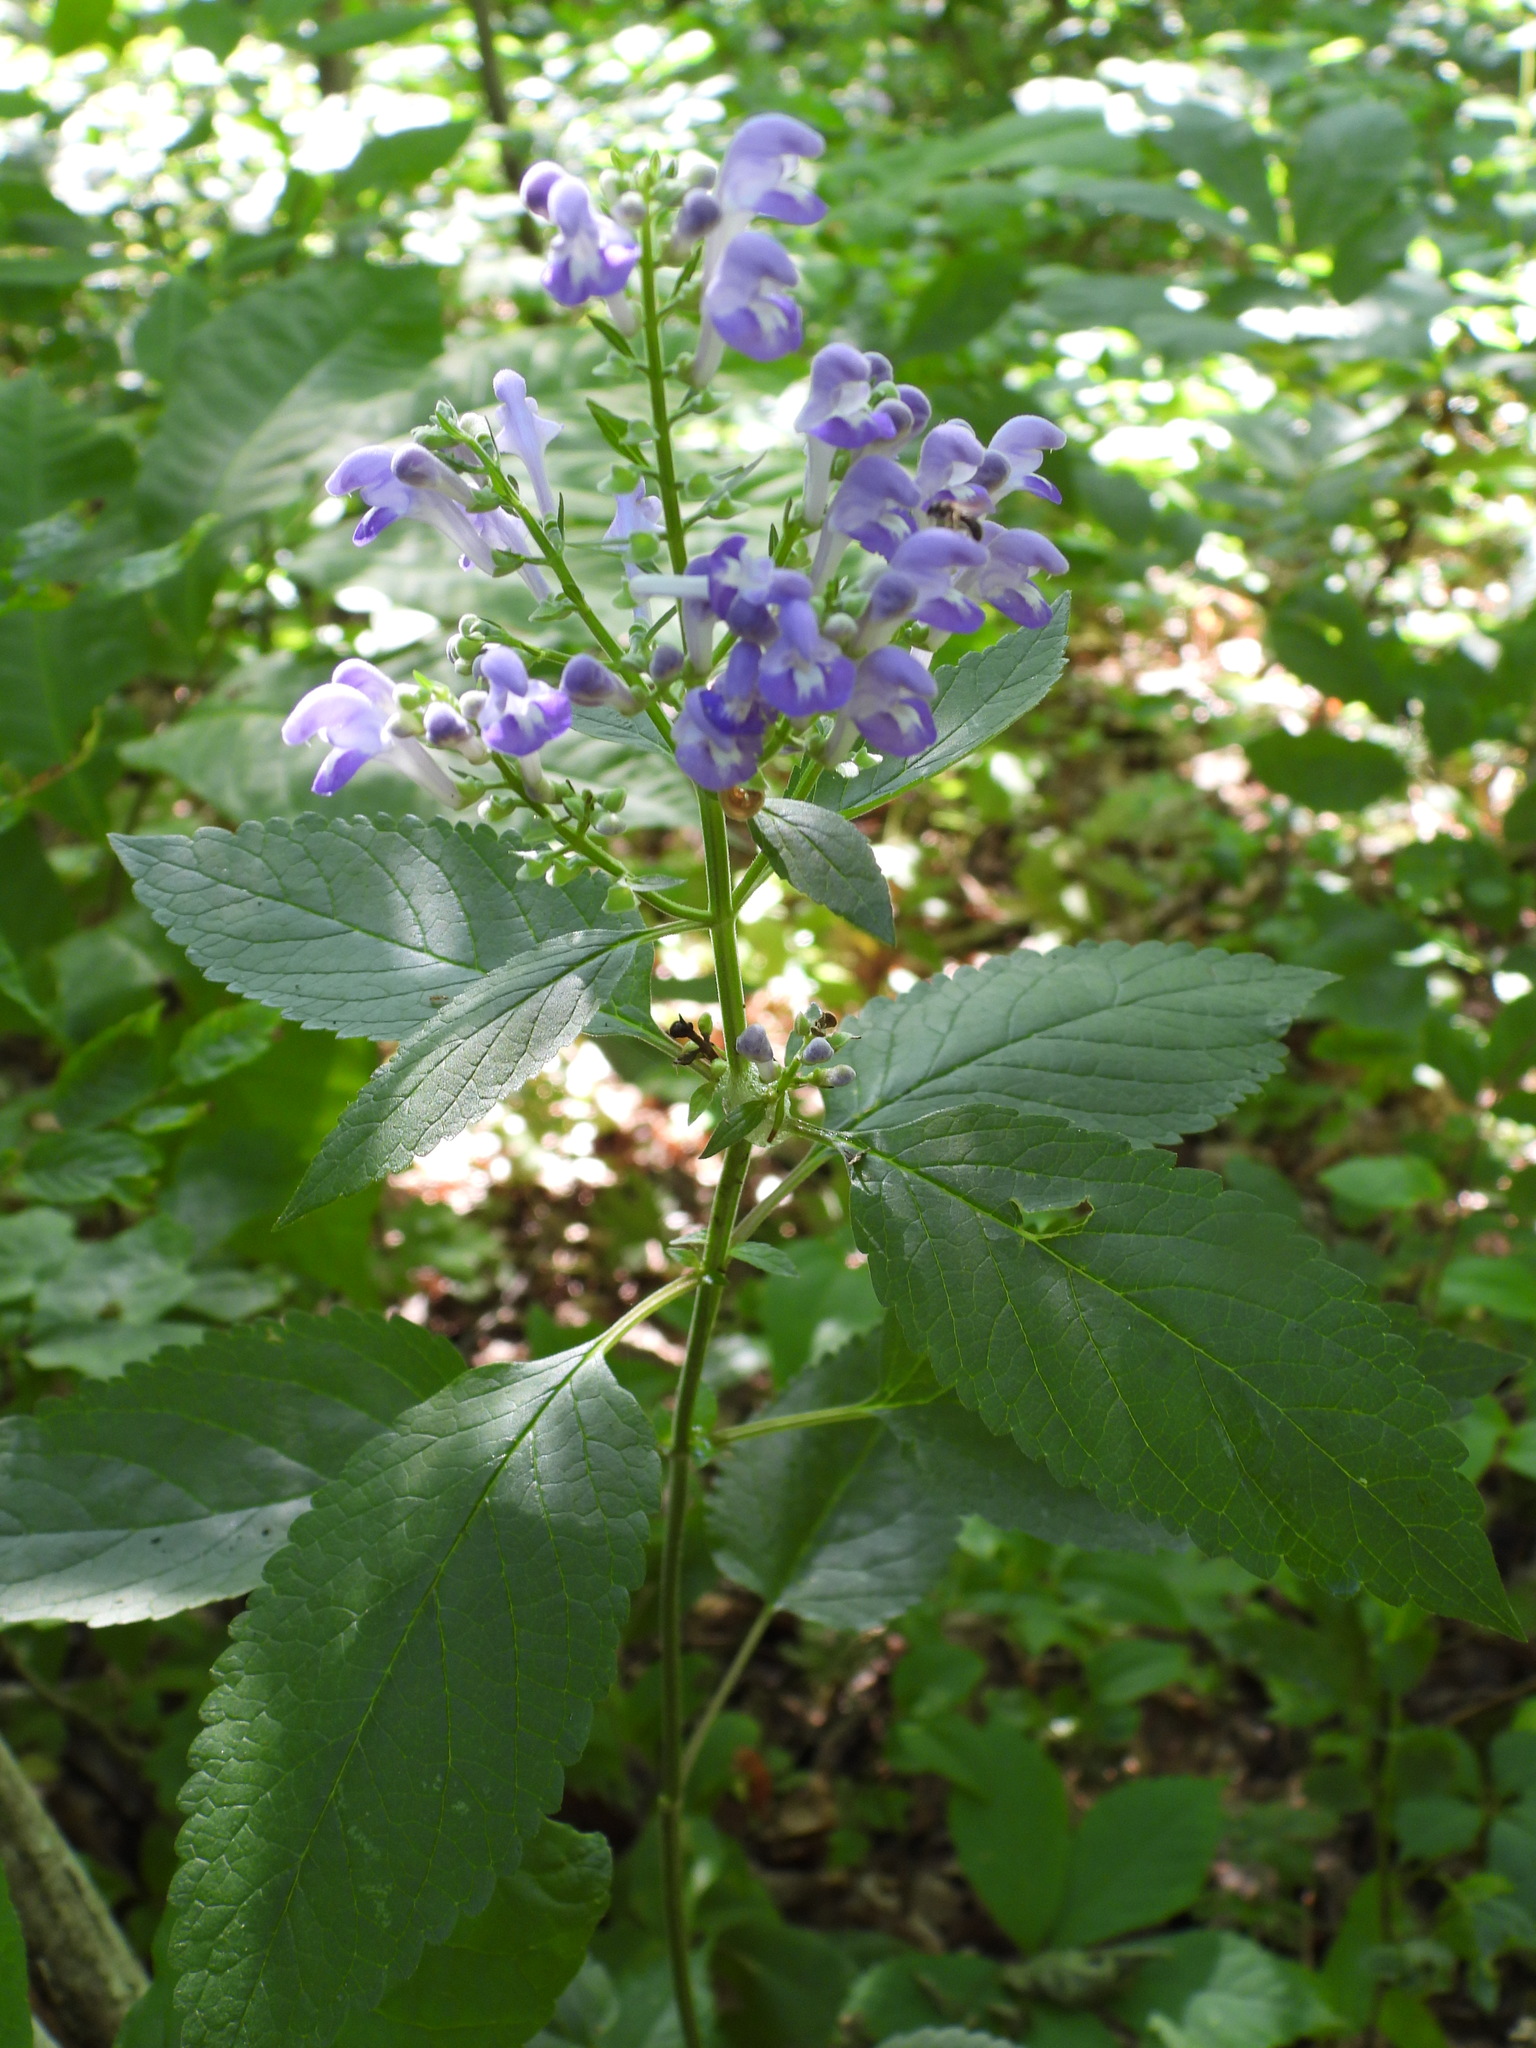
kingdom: Plantae
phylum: Tracheophyta
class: Magnoliopsida
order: Lamiales
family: Lamiaceae
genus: Scutellaria
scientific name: Scutellaria incana
